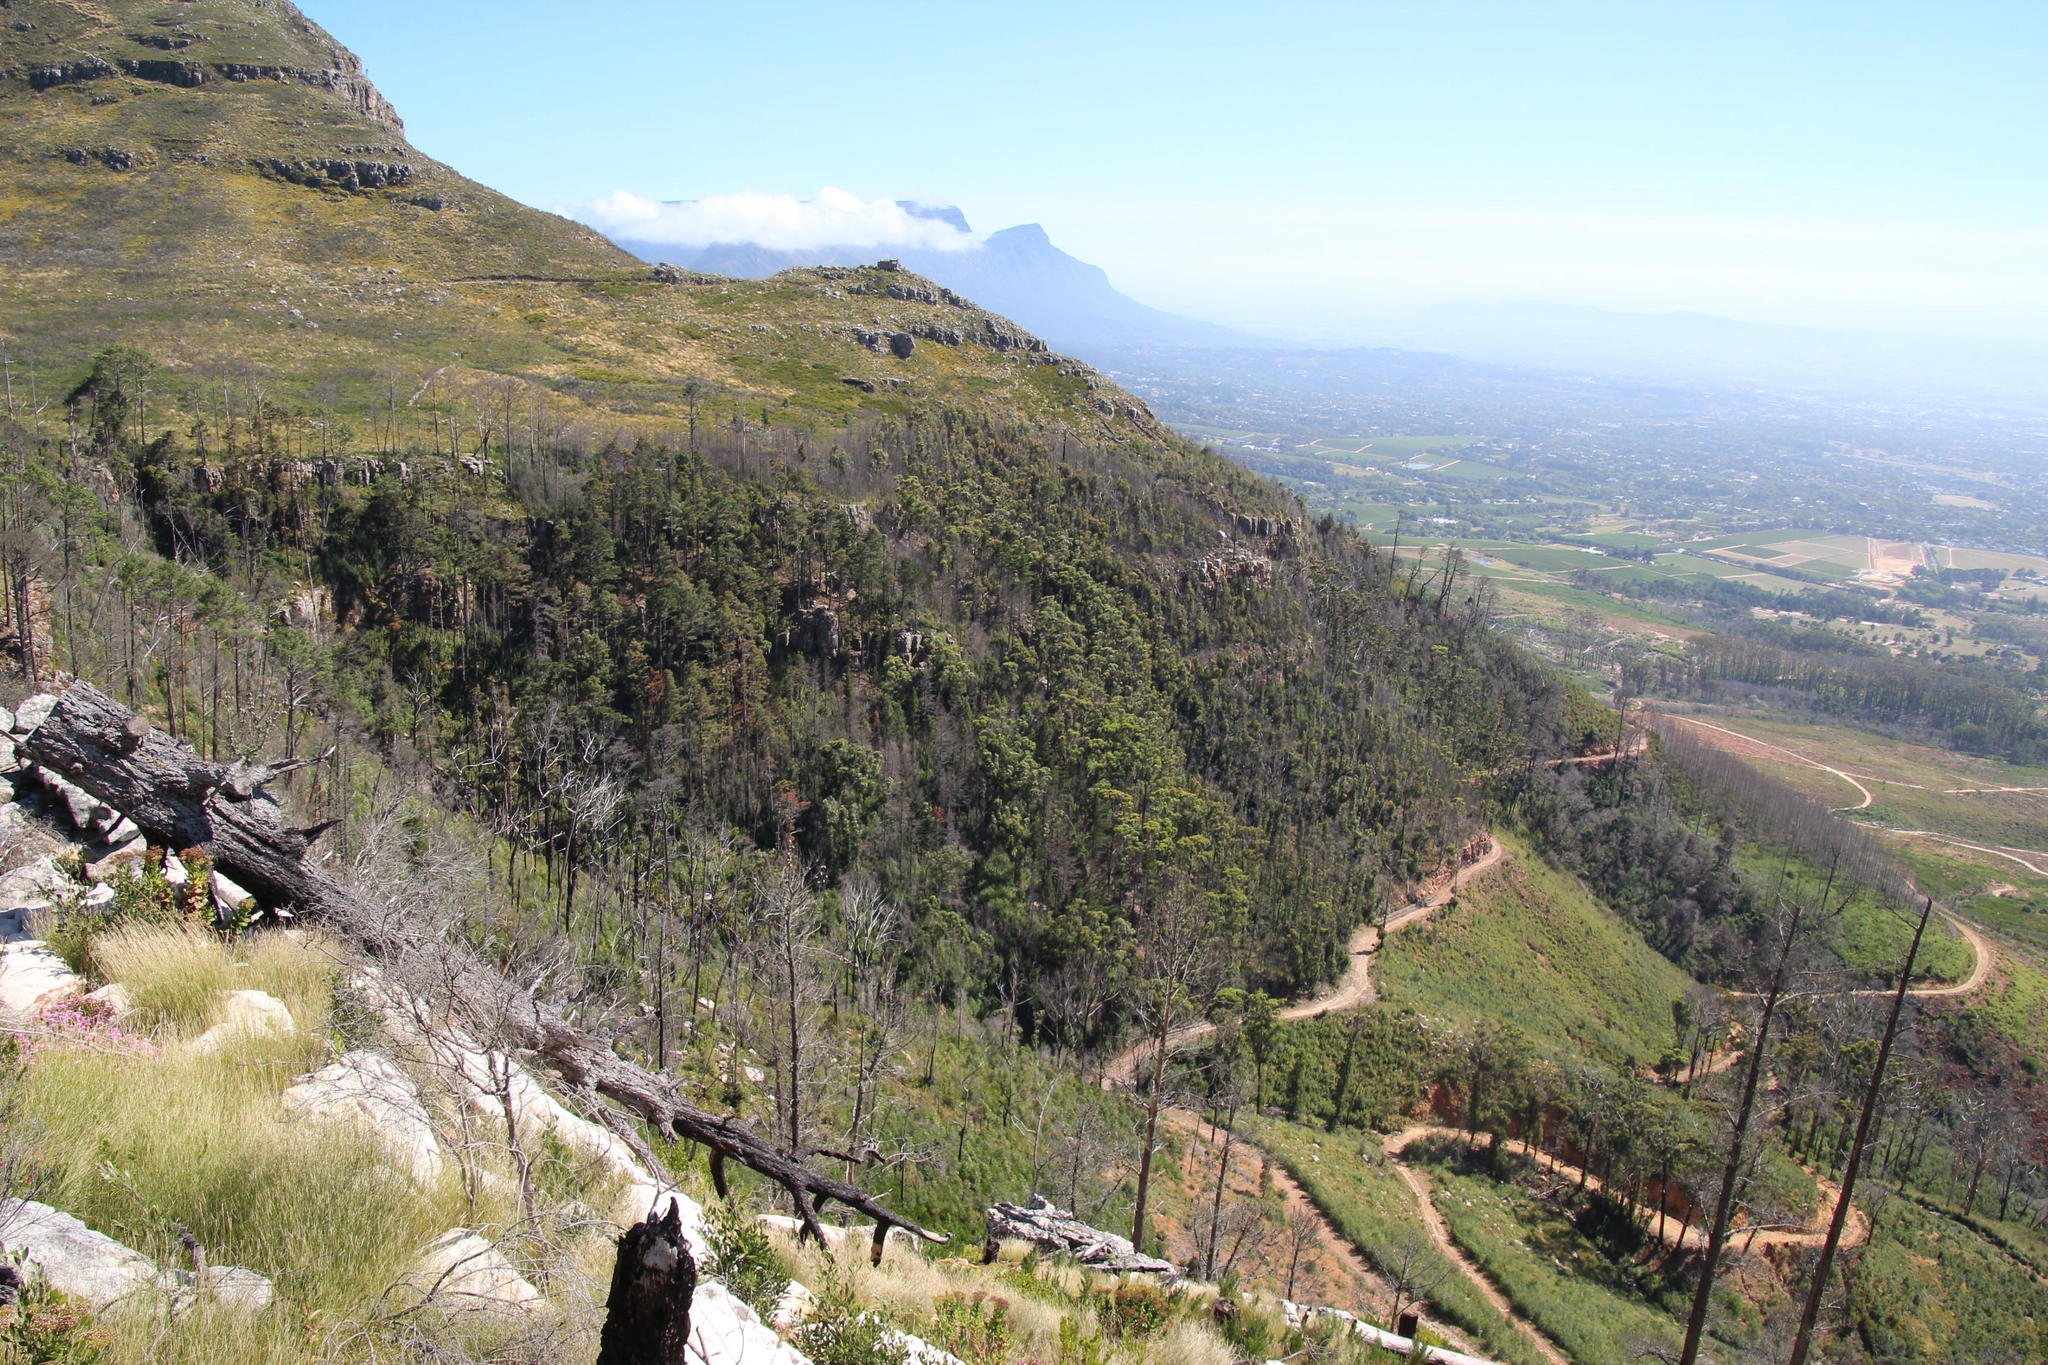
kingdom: Plantae
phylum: Tracheophyta
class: Magnoliopsida
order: Fabales
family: Fabaceae
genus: Acacia
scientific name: Acacia melanoxylon
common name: Blackwood
